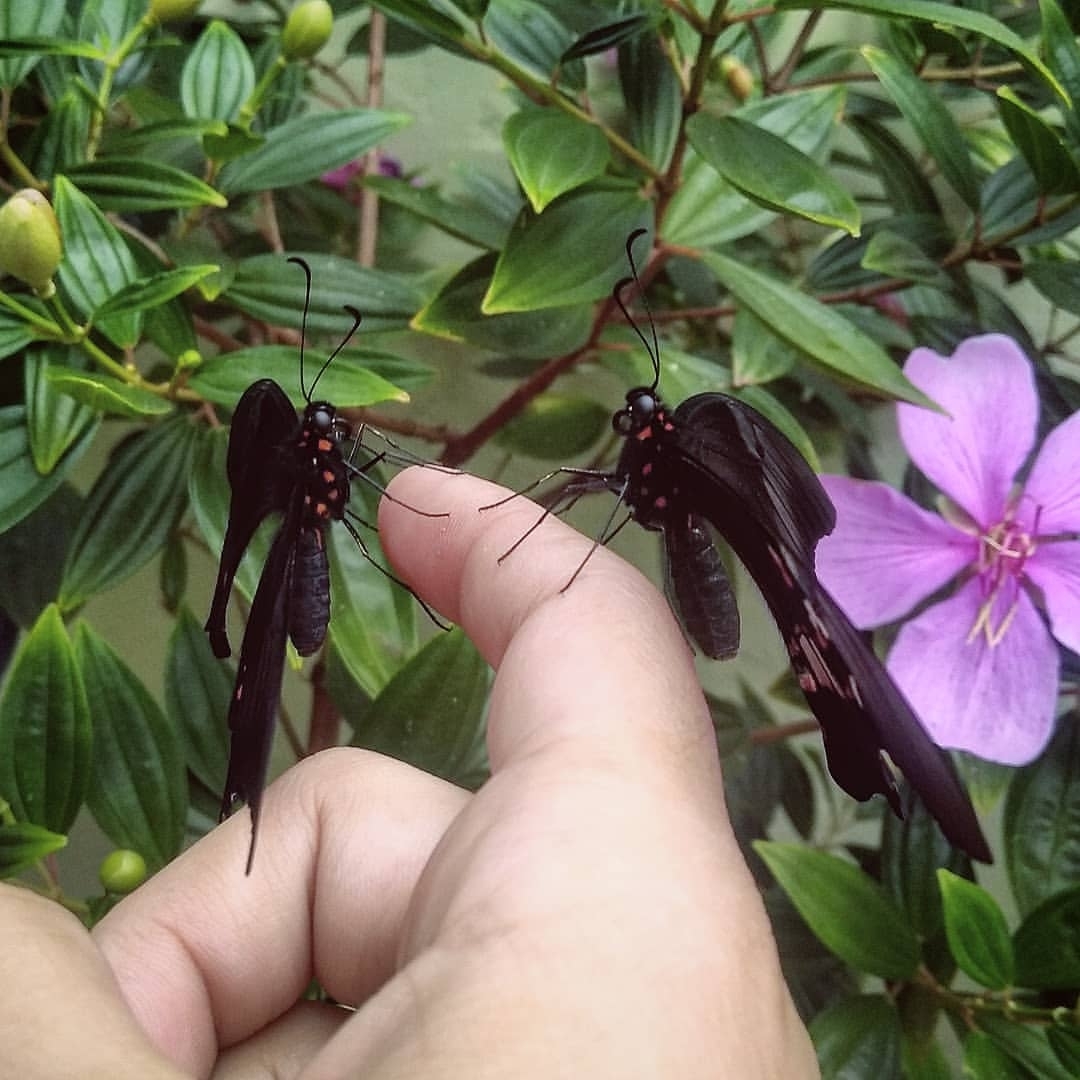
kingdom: Animalia
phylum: Arthropoda
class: Insecta
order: Lepidoptera
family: Papilionidae
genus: Papilio
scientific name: Papilio anchisiades
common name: Idaes swallowtail
